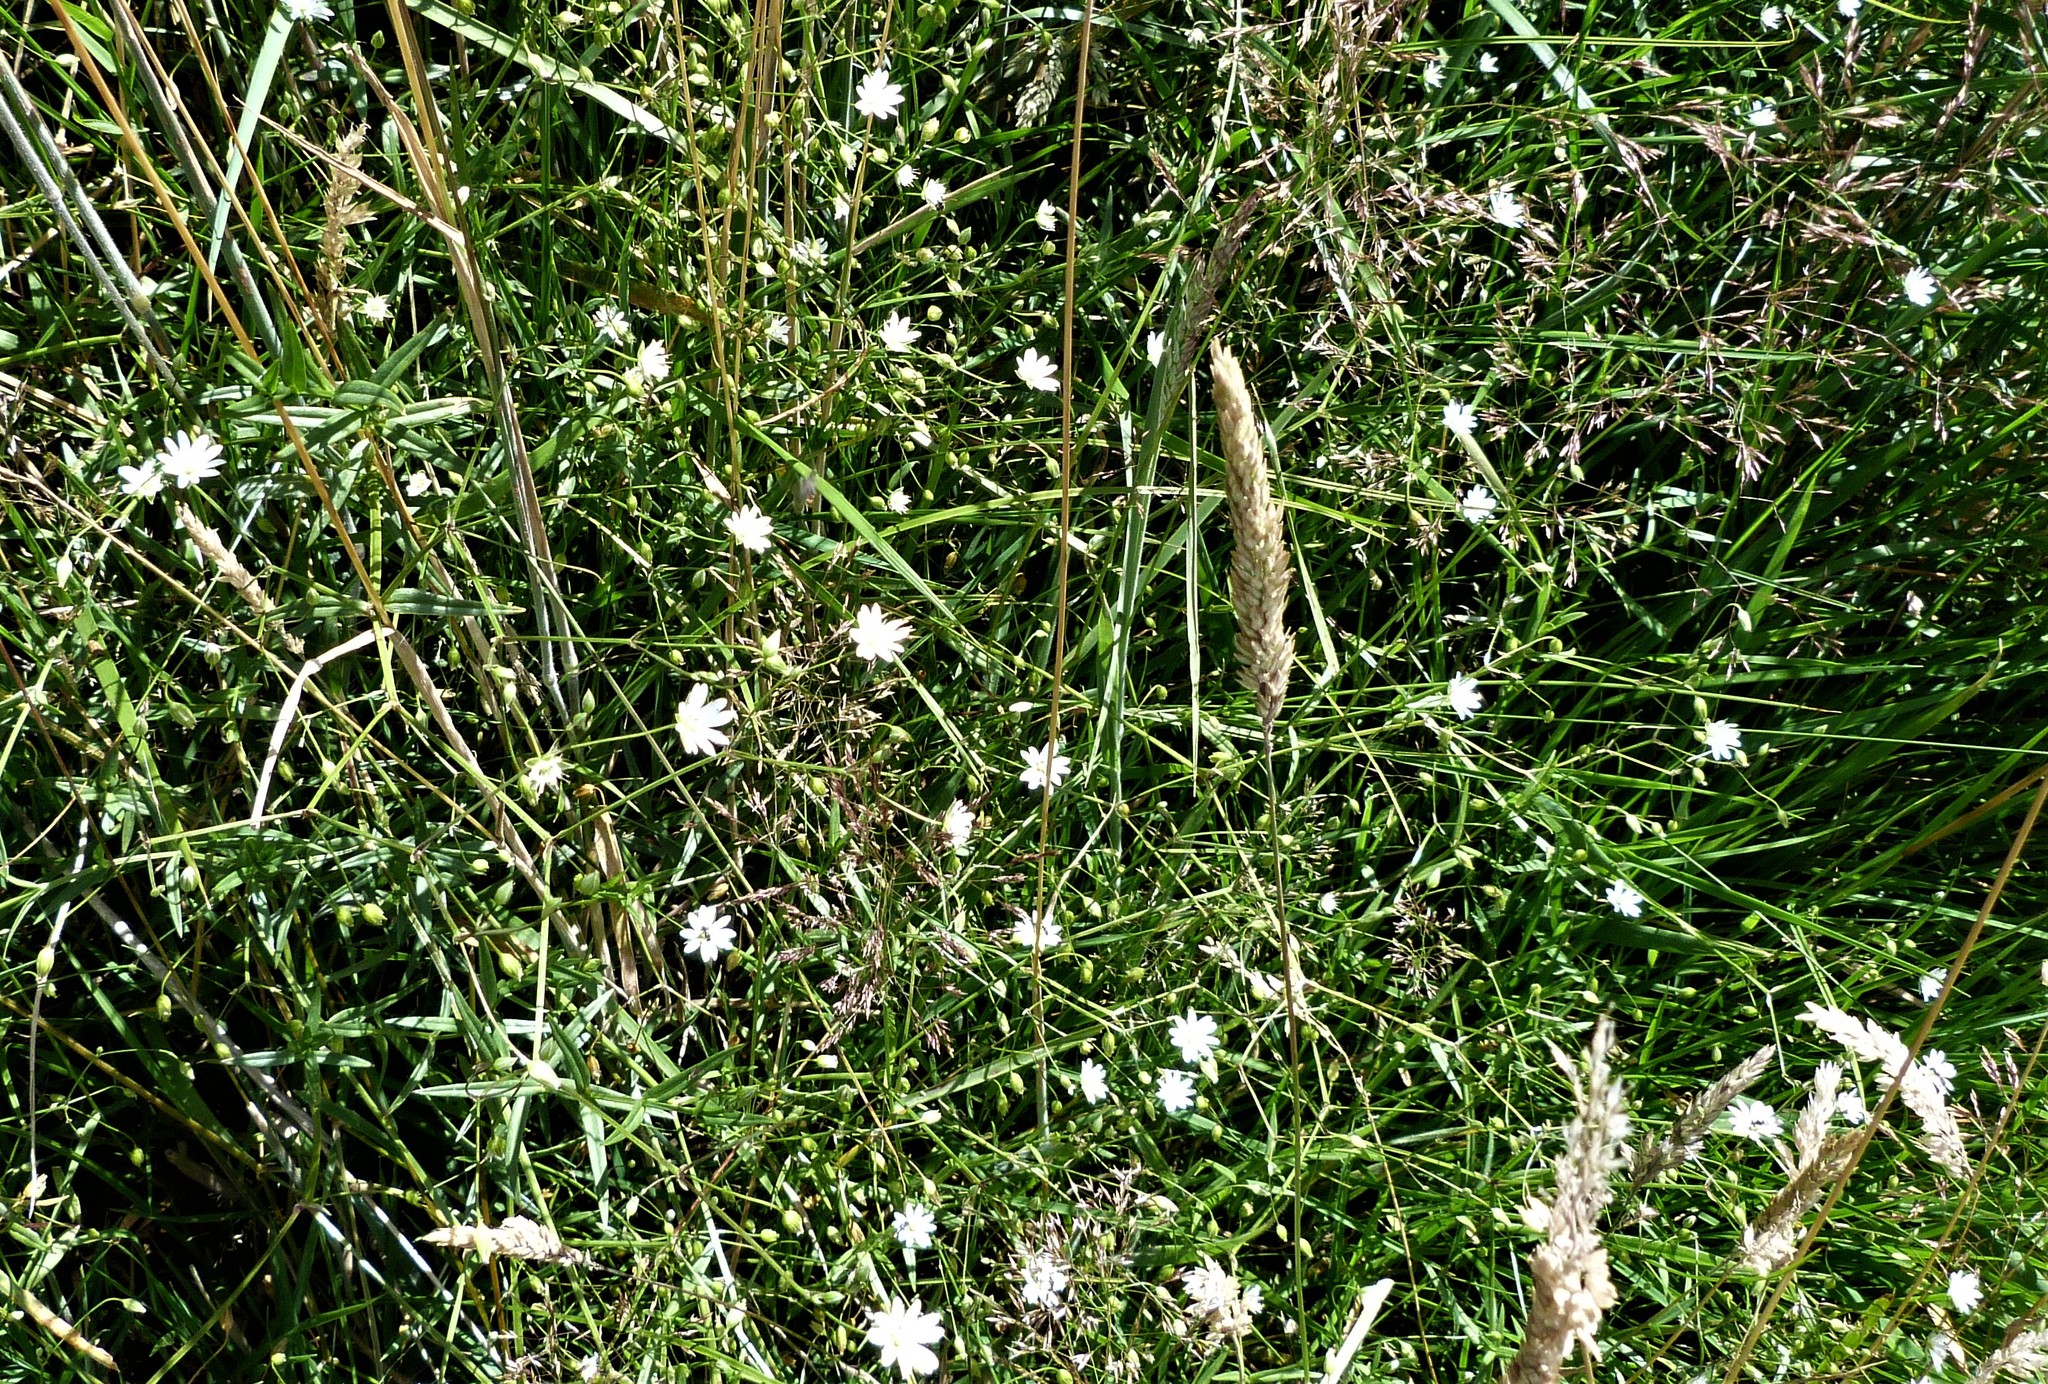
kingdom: Plantae
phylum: Tracheophyta
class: Magnoliopsida
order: Caryophyllales
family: Caryophyllaceae
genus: Stellaria
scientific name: Stellaria graminea
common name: Grass-like starwort
